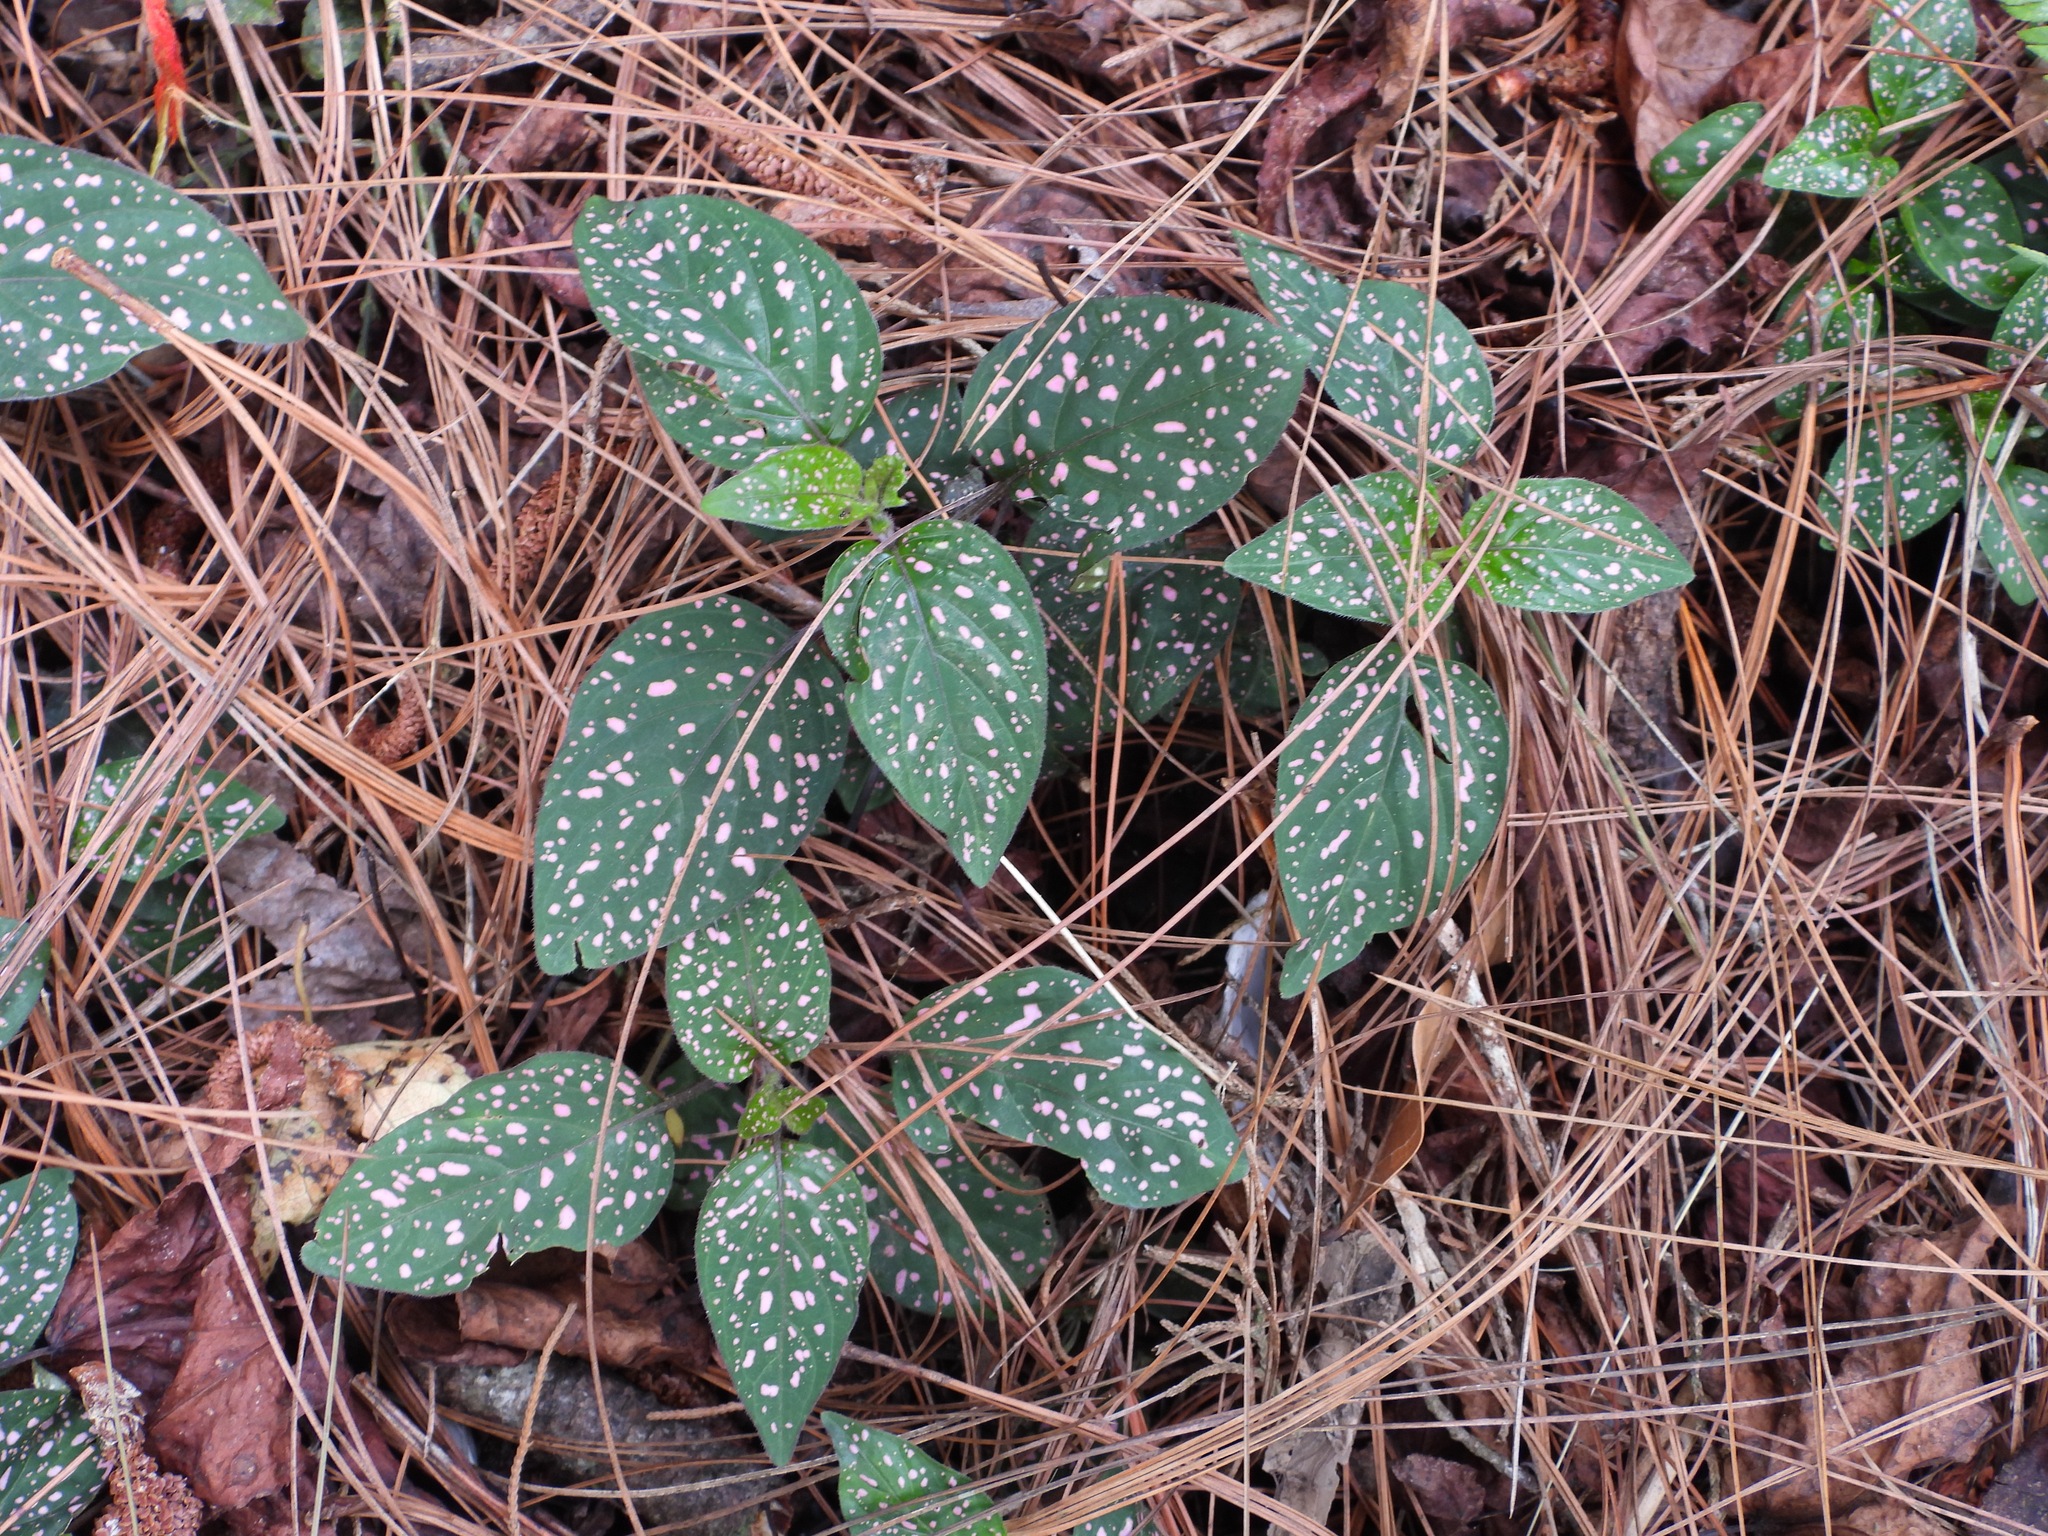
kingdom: Plantae
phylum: Tracheophyta
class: Magnoliopsida
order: Lamiales
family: Acanthaceae
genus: Hypoestes
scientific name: Hypoestes phyllostachya
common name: Polkadot-plant
